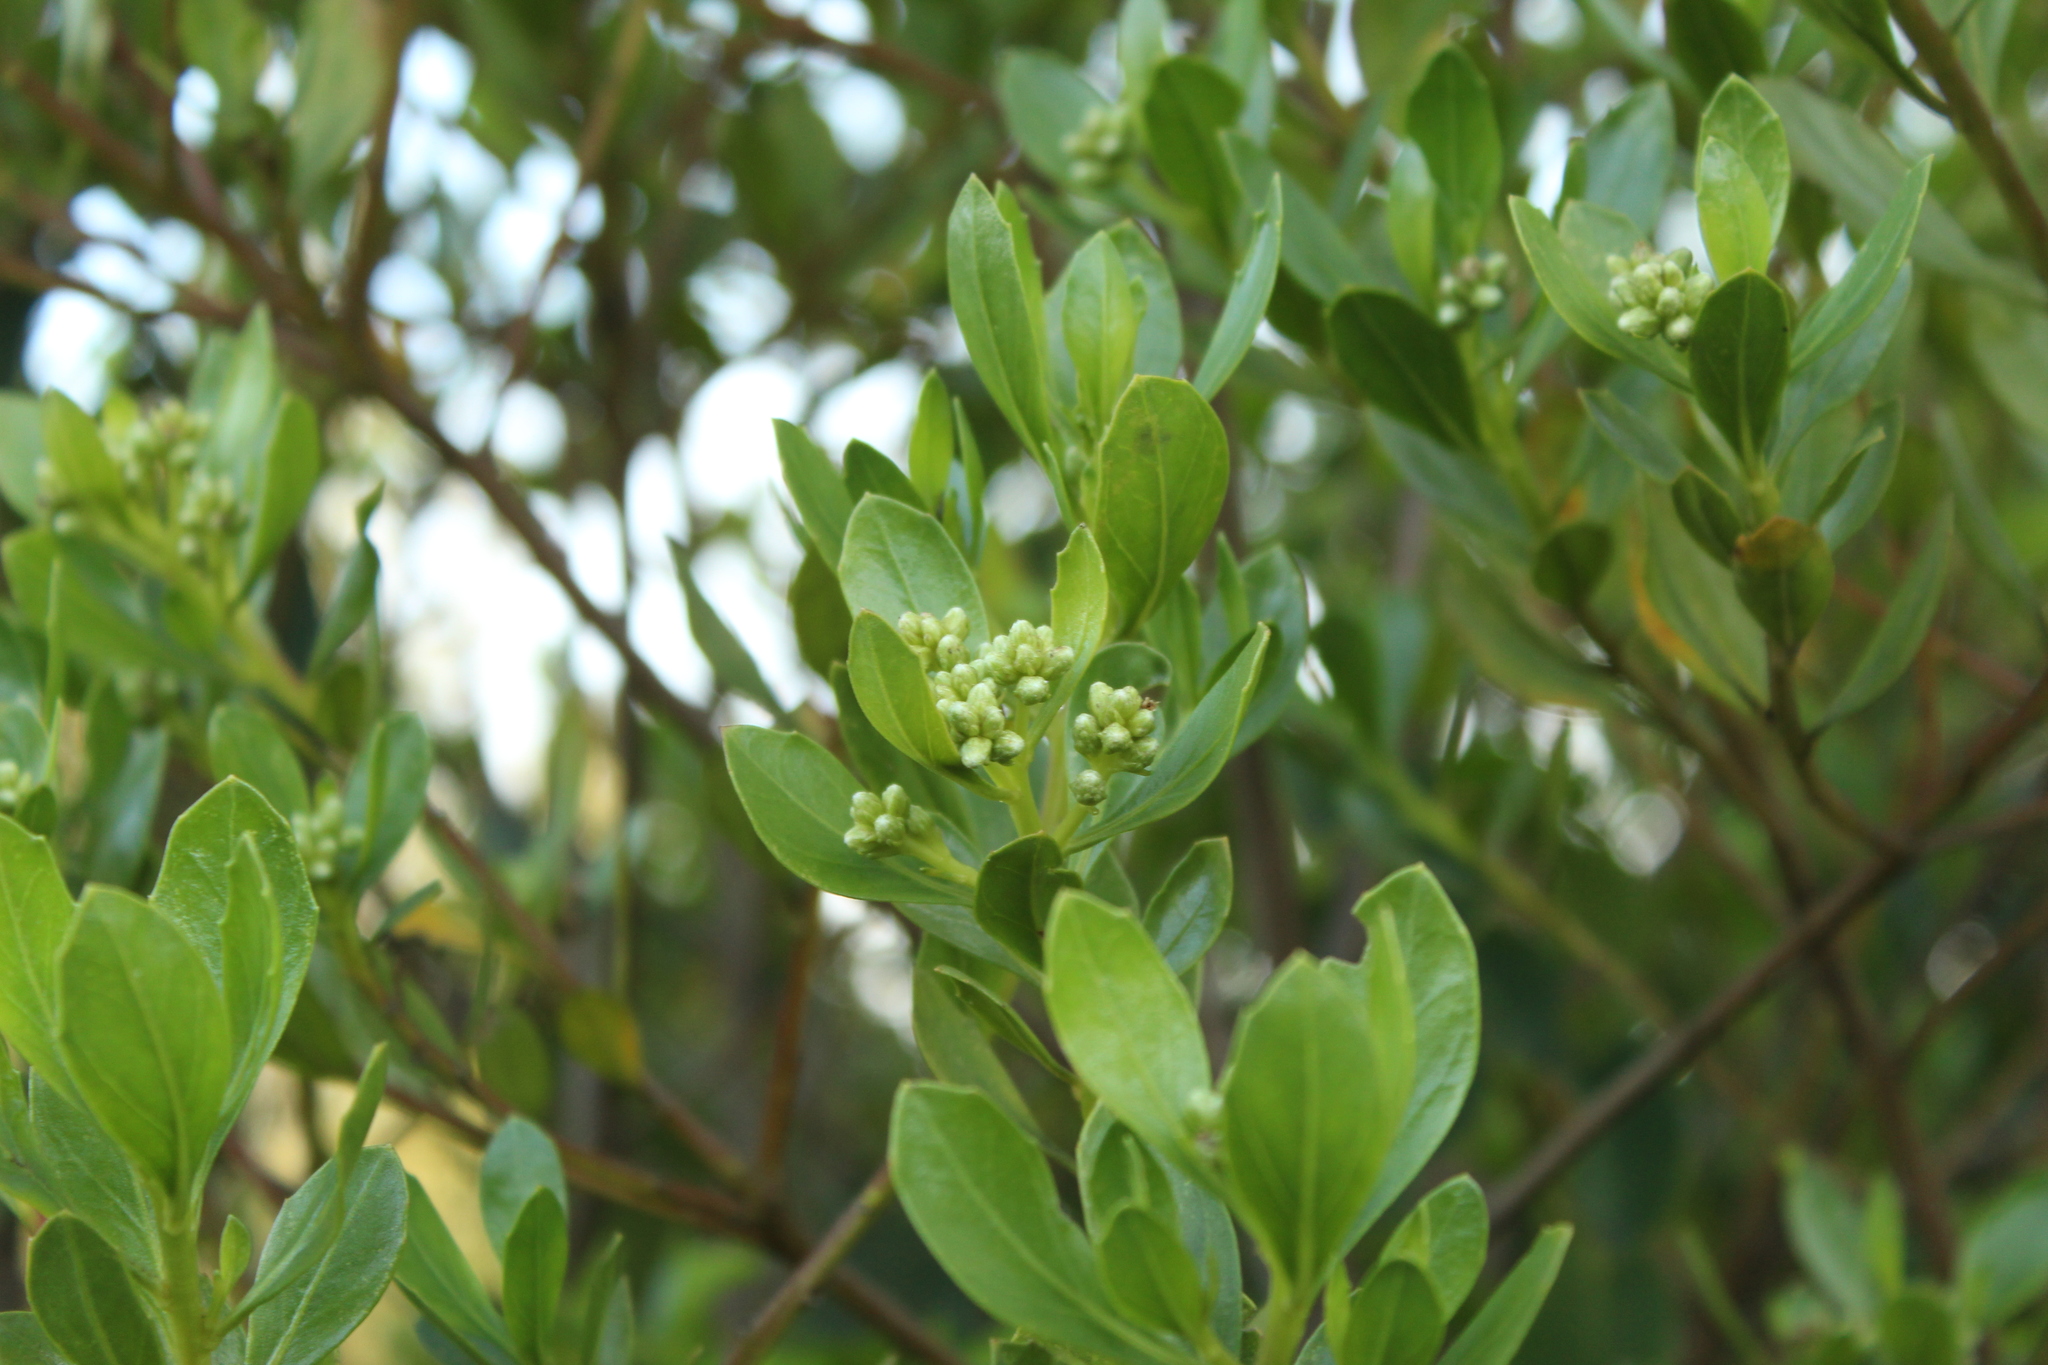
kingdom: Plantae
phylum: Tracheophyta
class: Magnoliopsida
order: Asterales
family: Asteraceae
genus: Baccharis
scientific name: Baccharis macrantha
